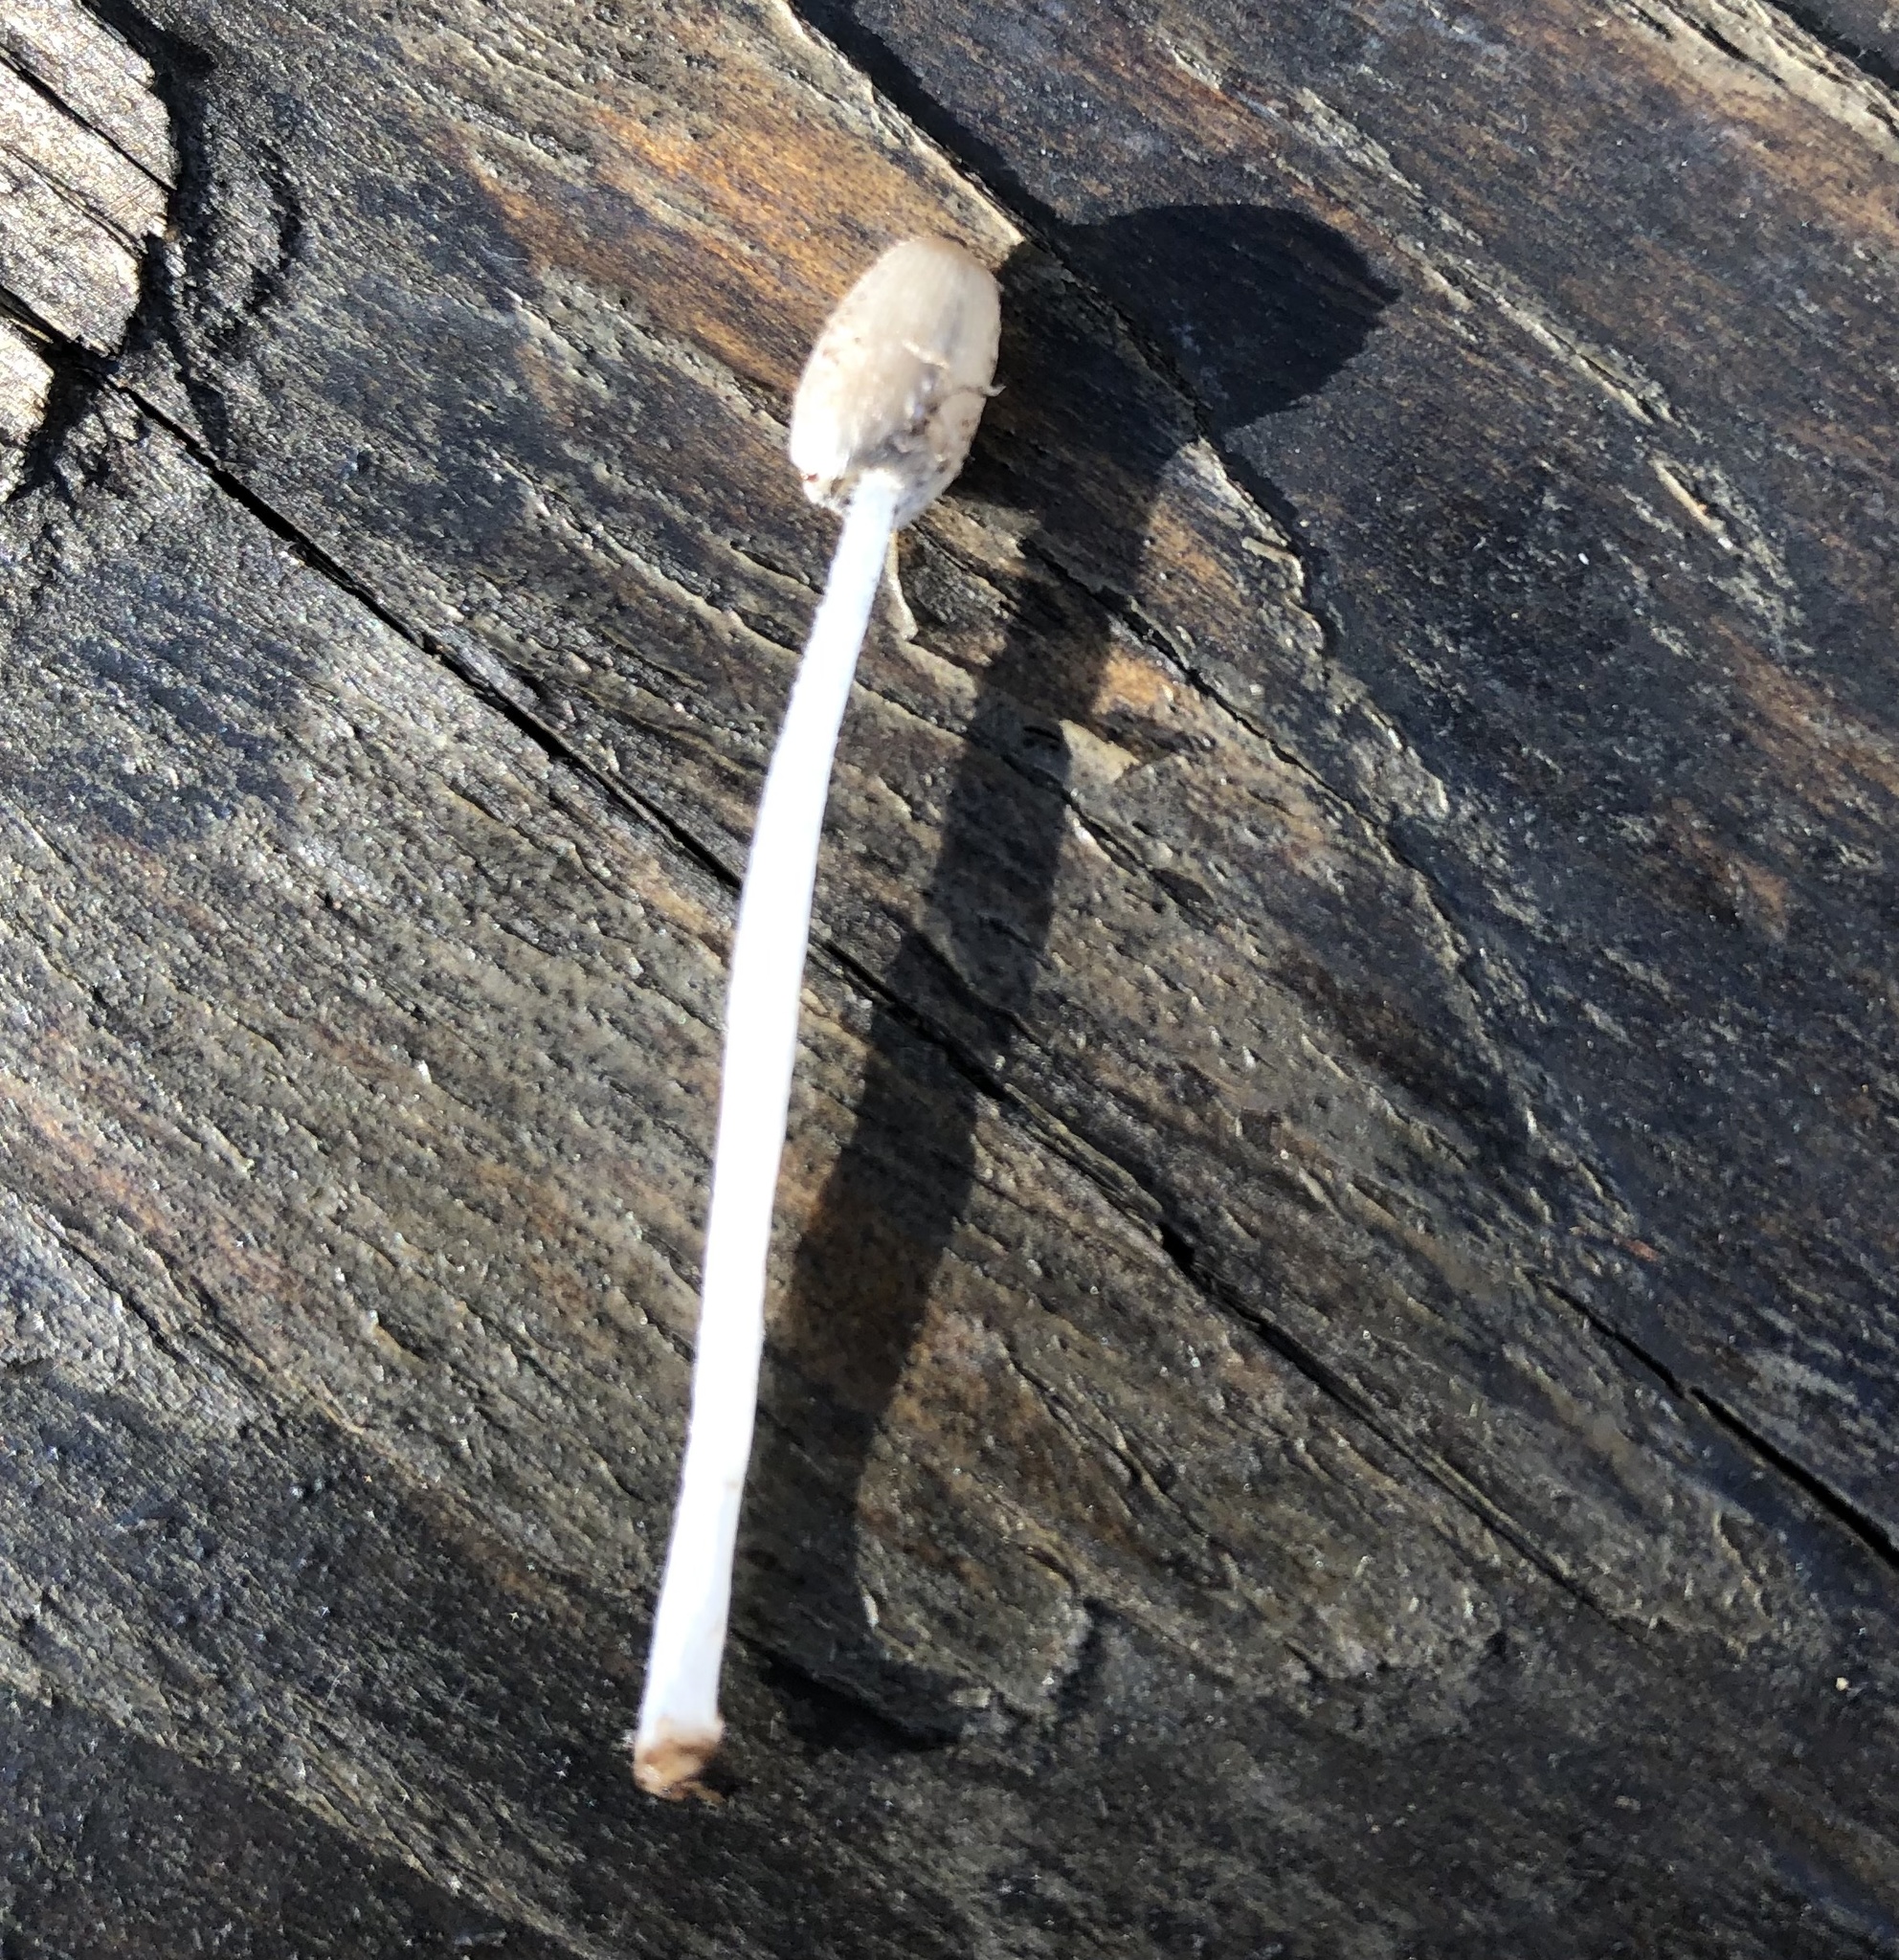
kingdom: Fungi
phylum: Basidiomycota
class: Agaricomycetes
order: Agaricales
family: Psathyrellaceae
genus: Parasola
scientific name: Parasola plicatilis
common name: Pleated inkcap
